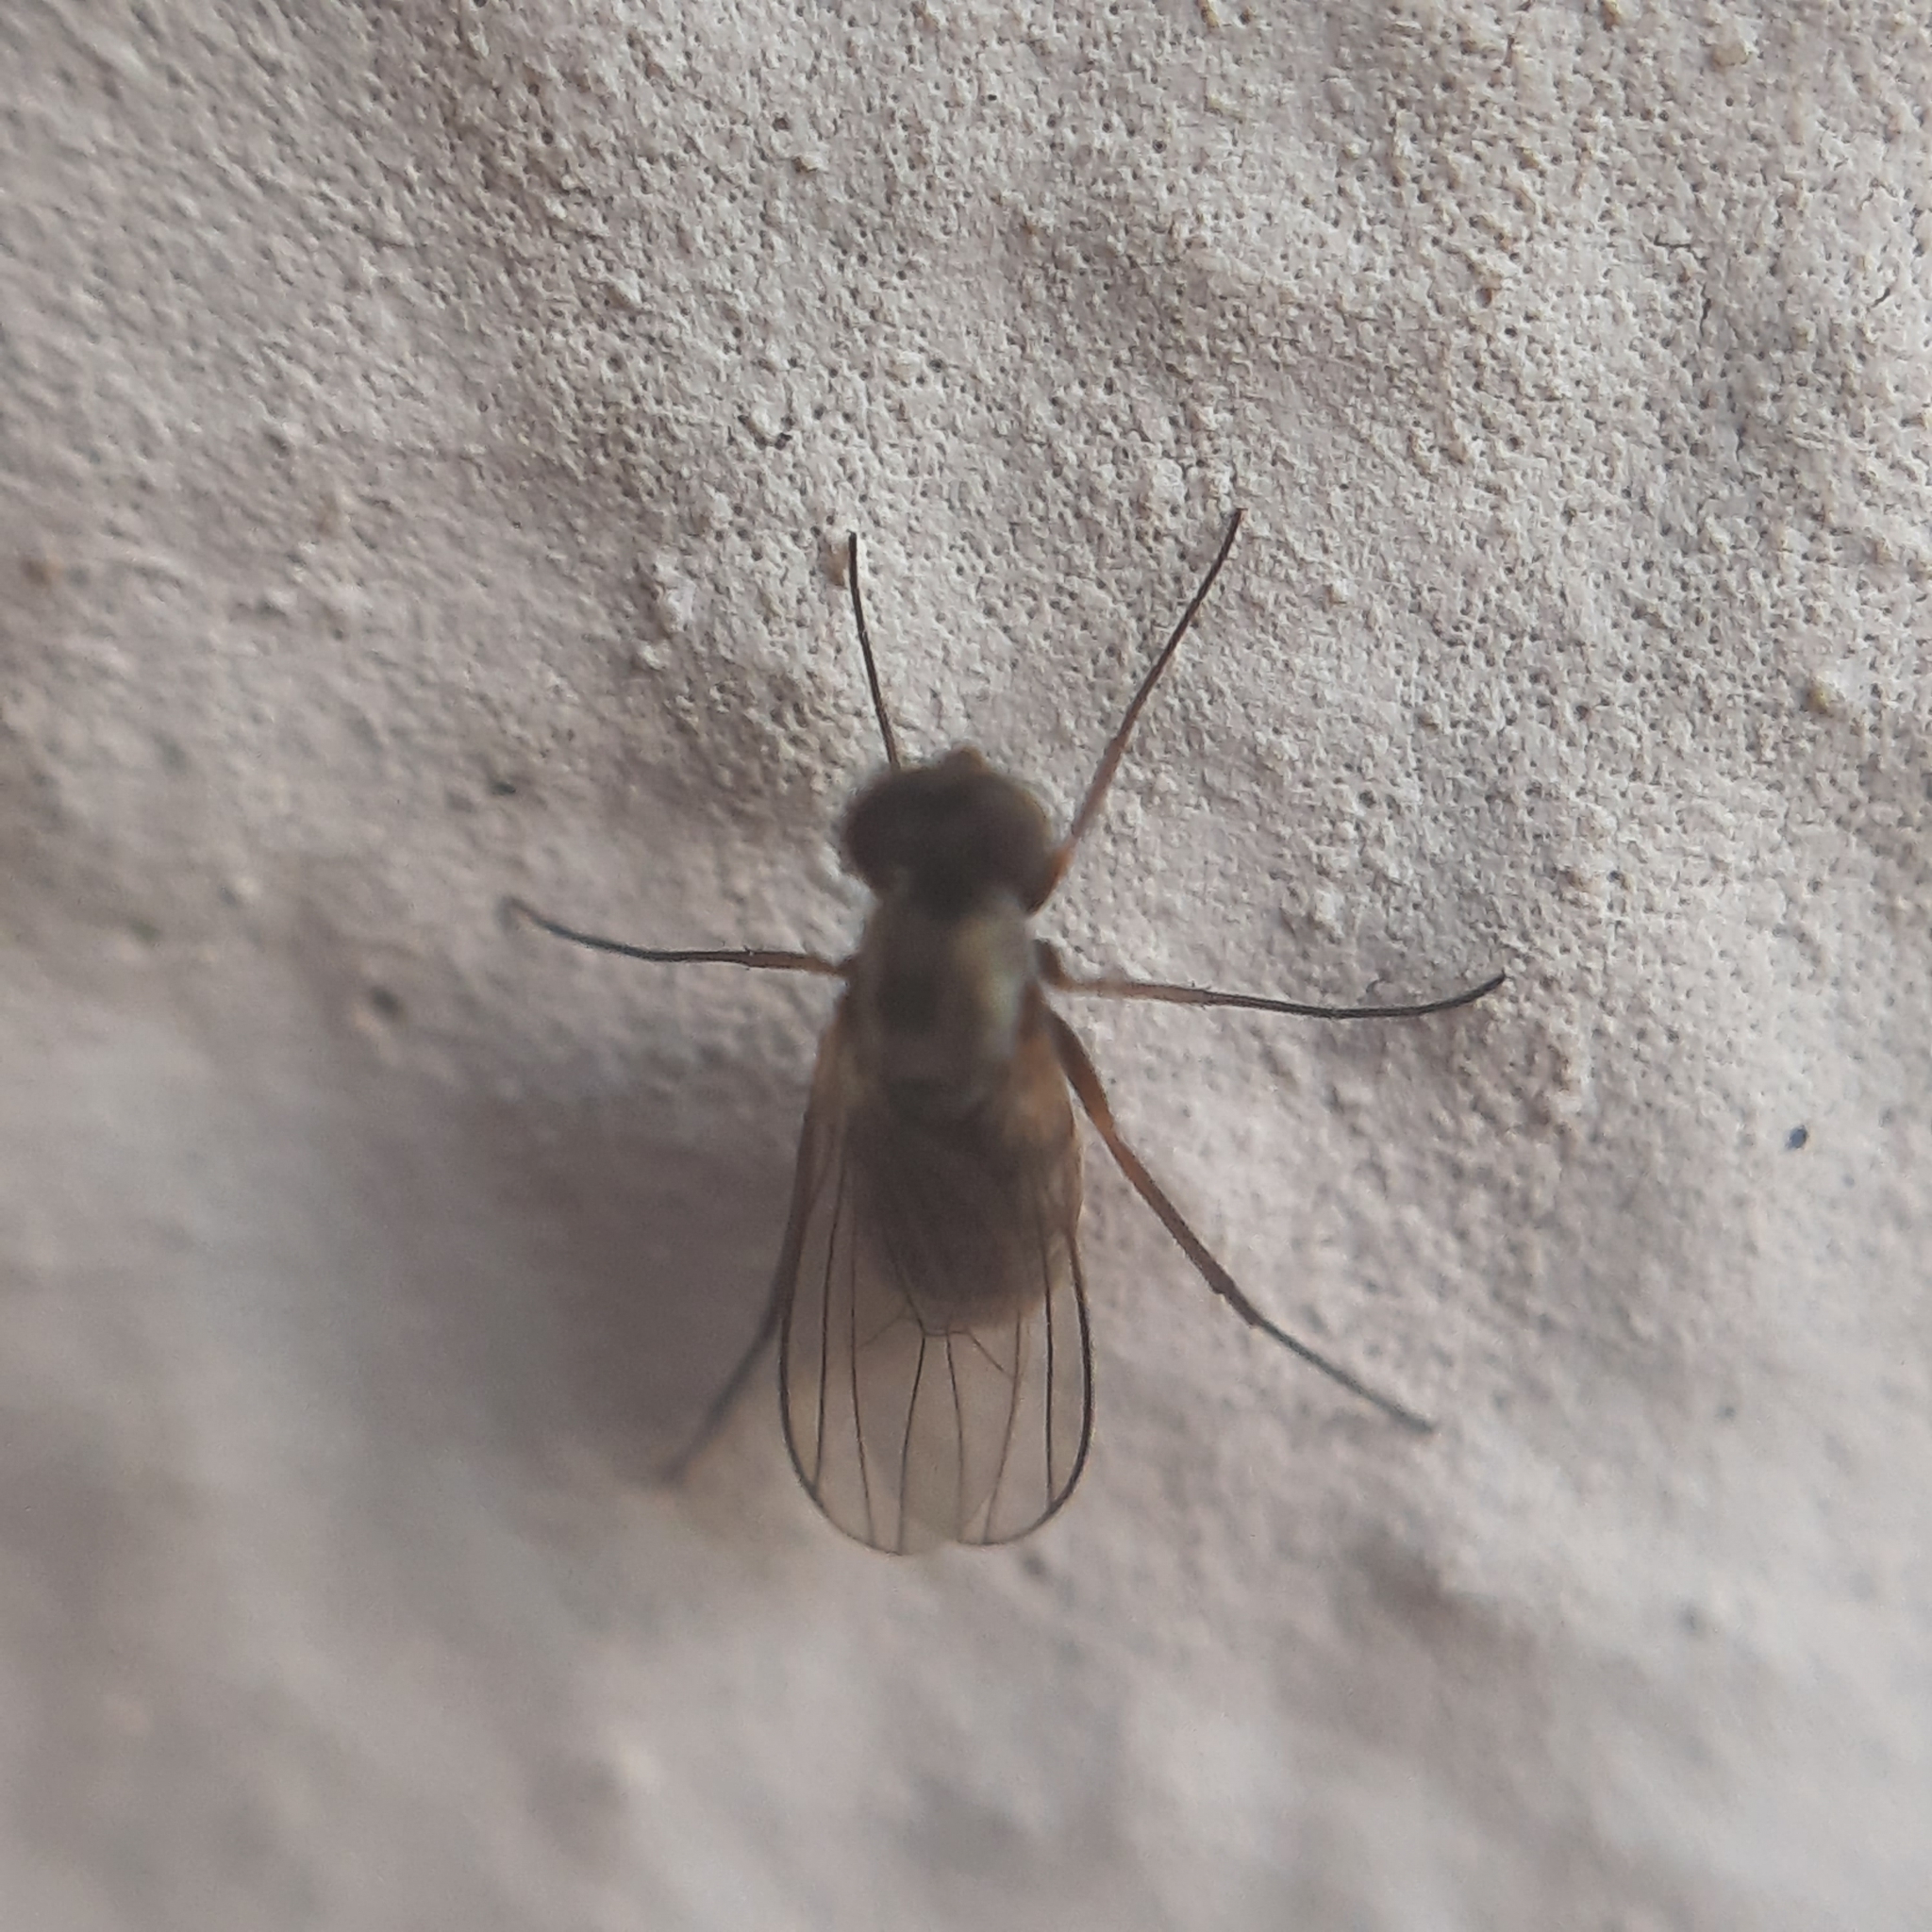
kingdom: Animalia
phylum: Arthropoda
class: Insecta
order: Diptera
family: Dolichopodidae
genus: Medetera
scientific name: Medetera
